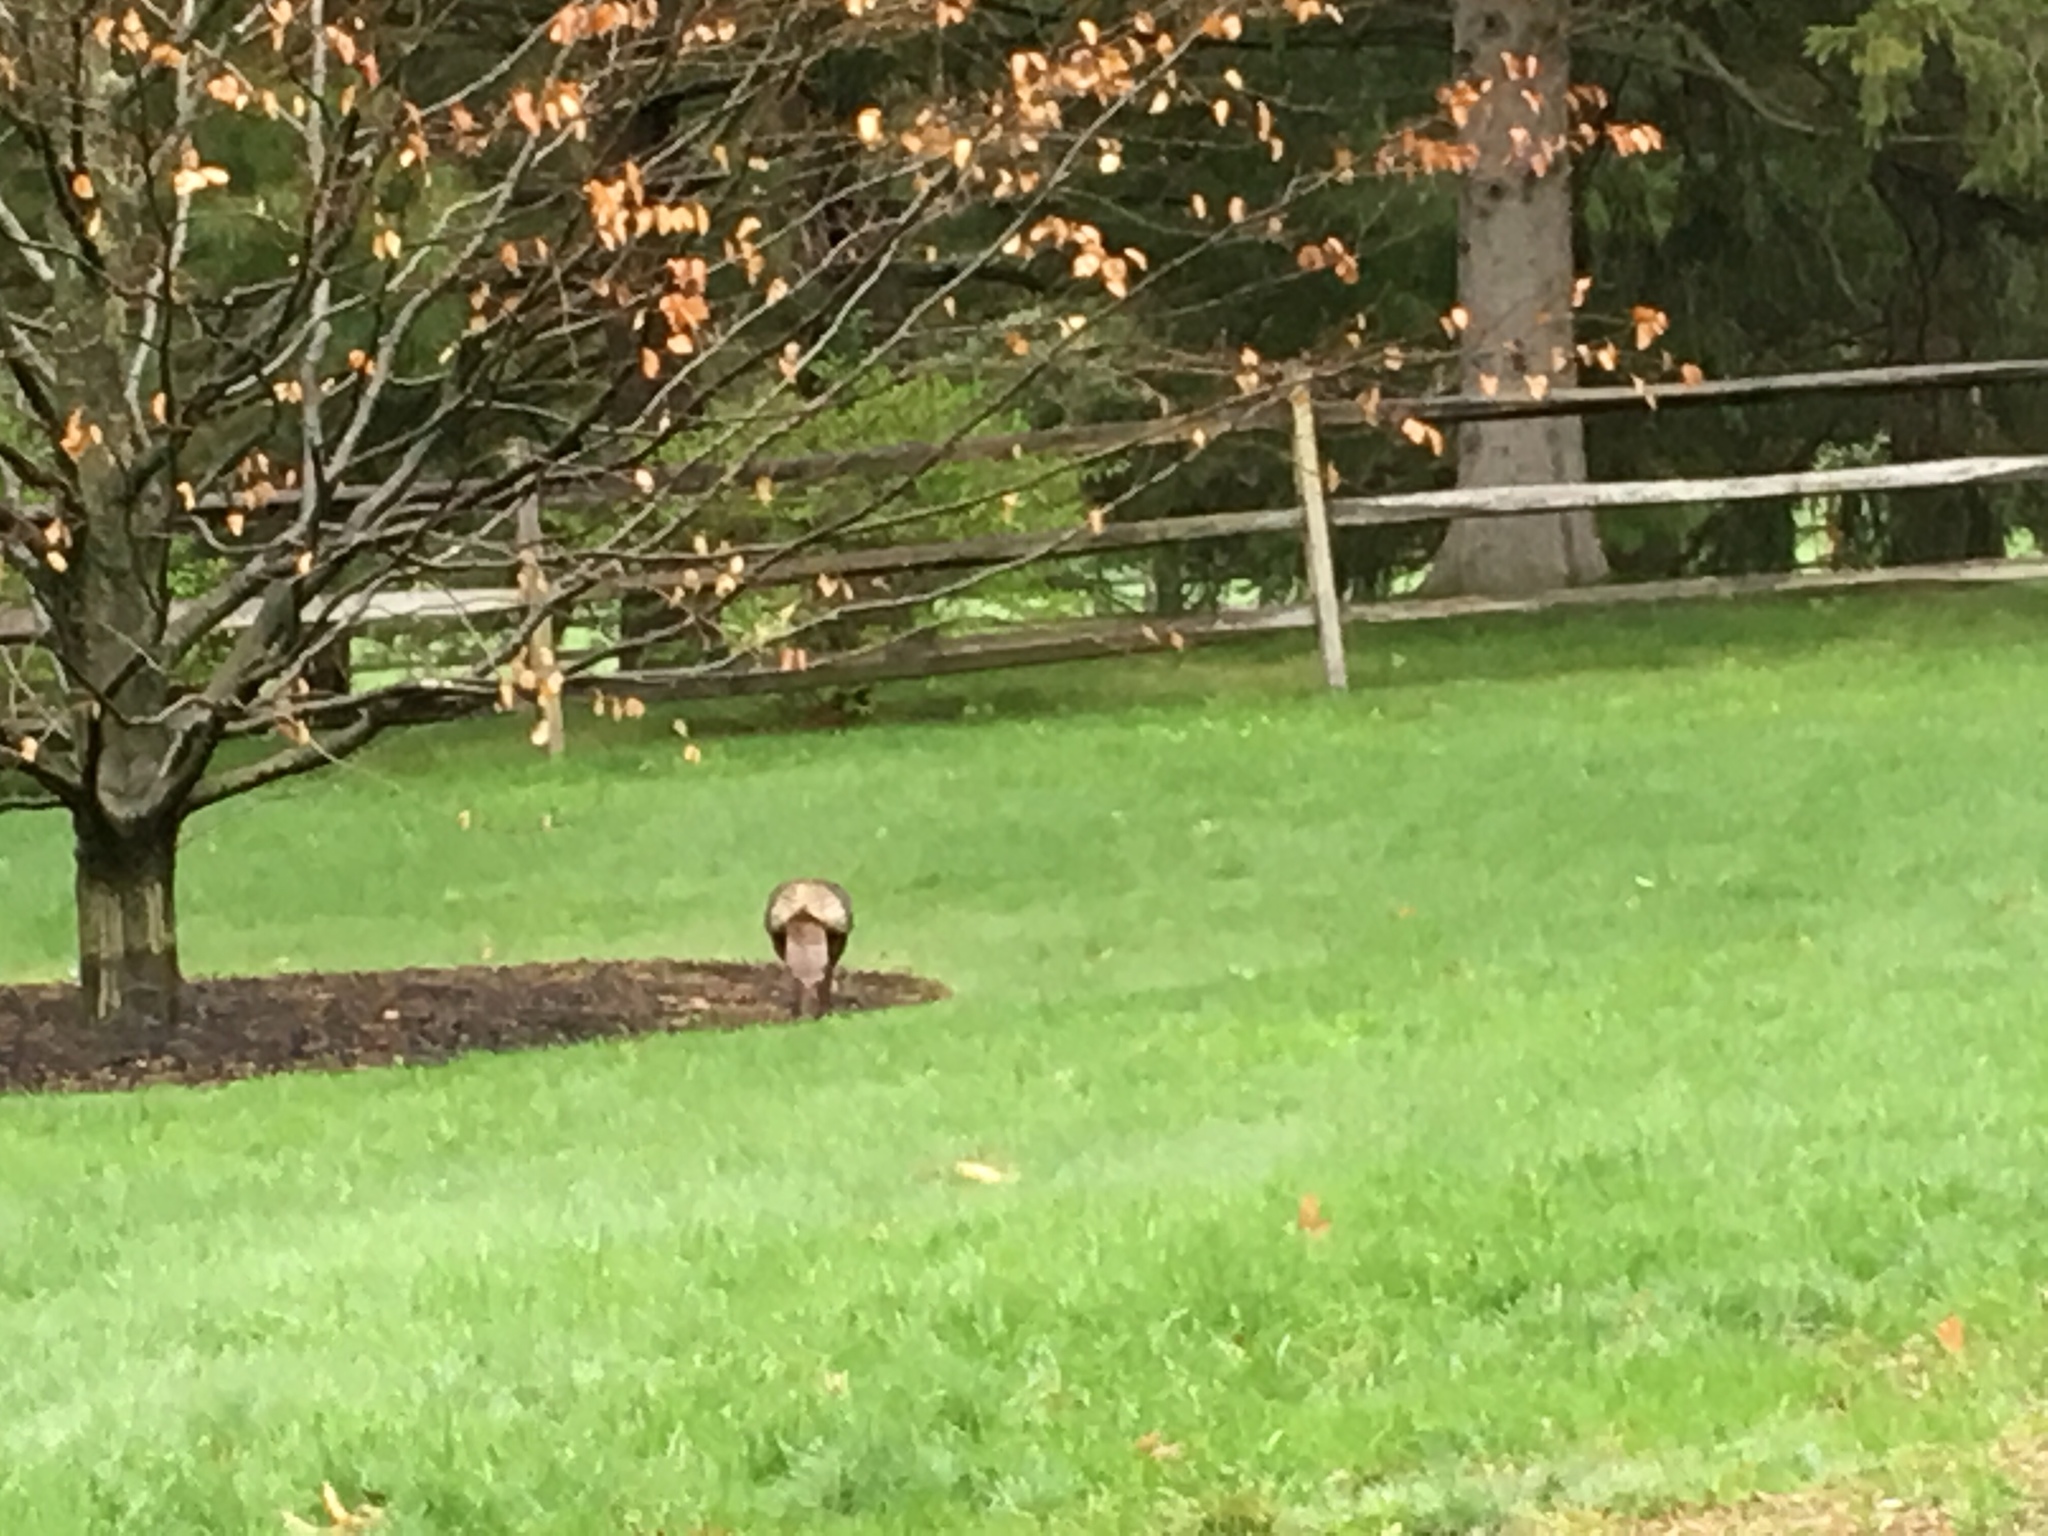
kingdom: Animalia
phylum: Chordata
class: Aves
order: Galliformes
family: Phasianidae
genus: Meleagris
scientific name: Meleagris gallopavo
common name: Wild turkey
